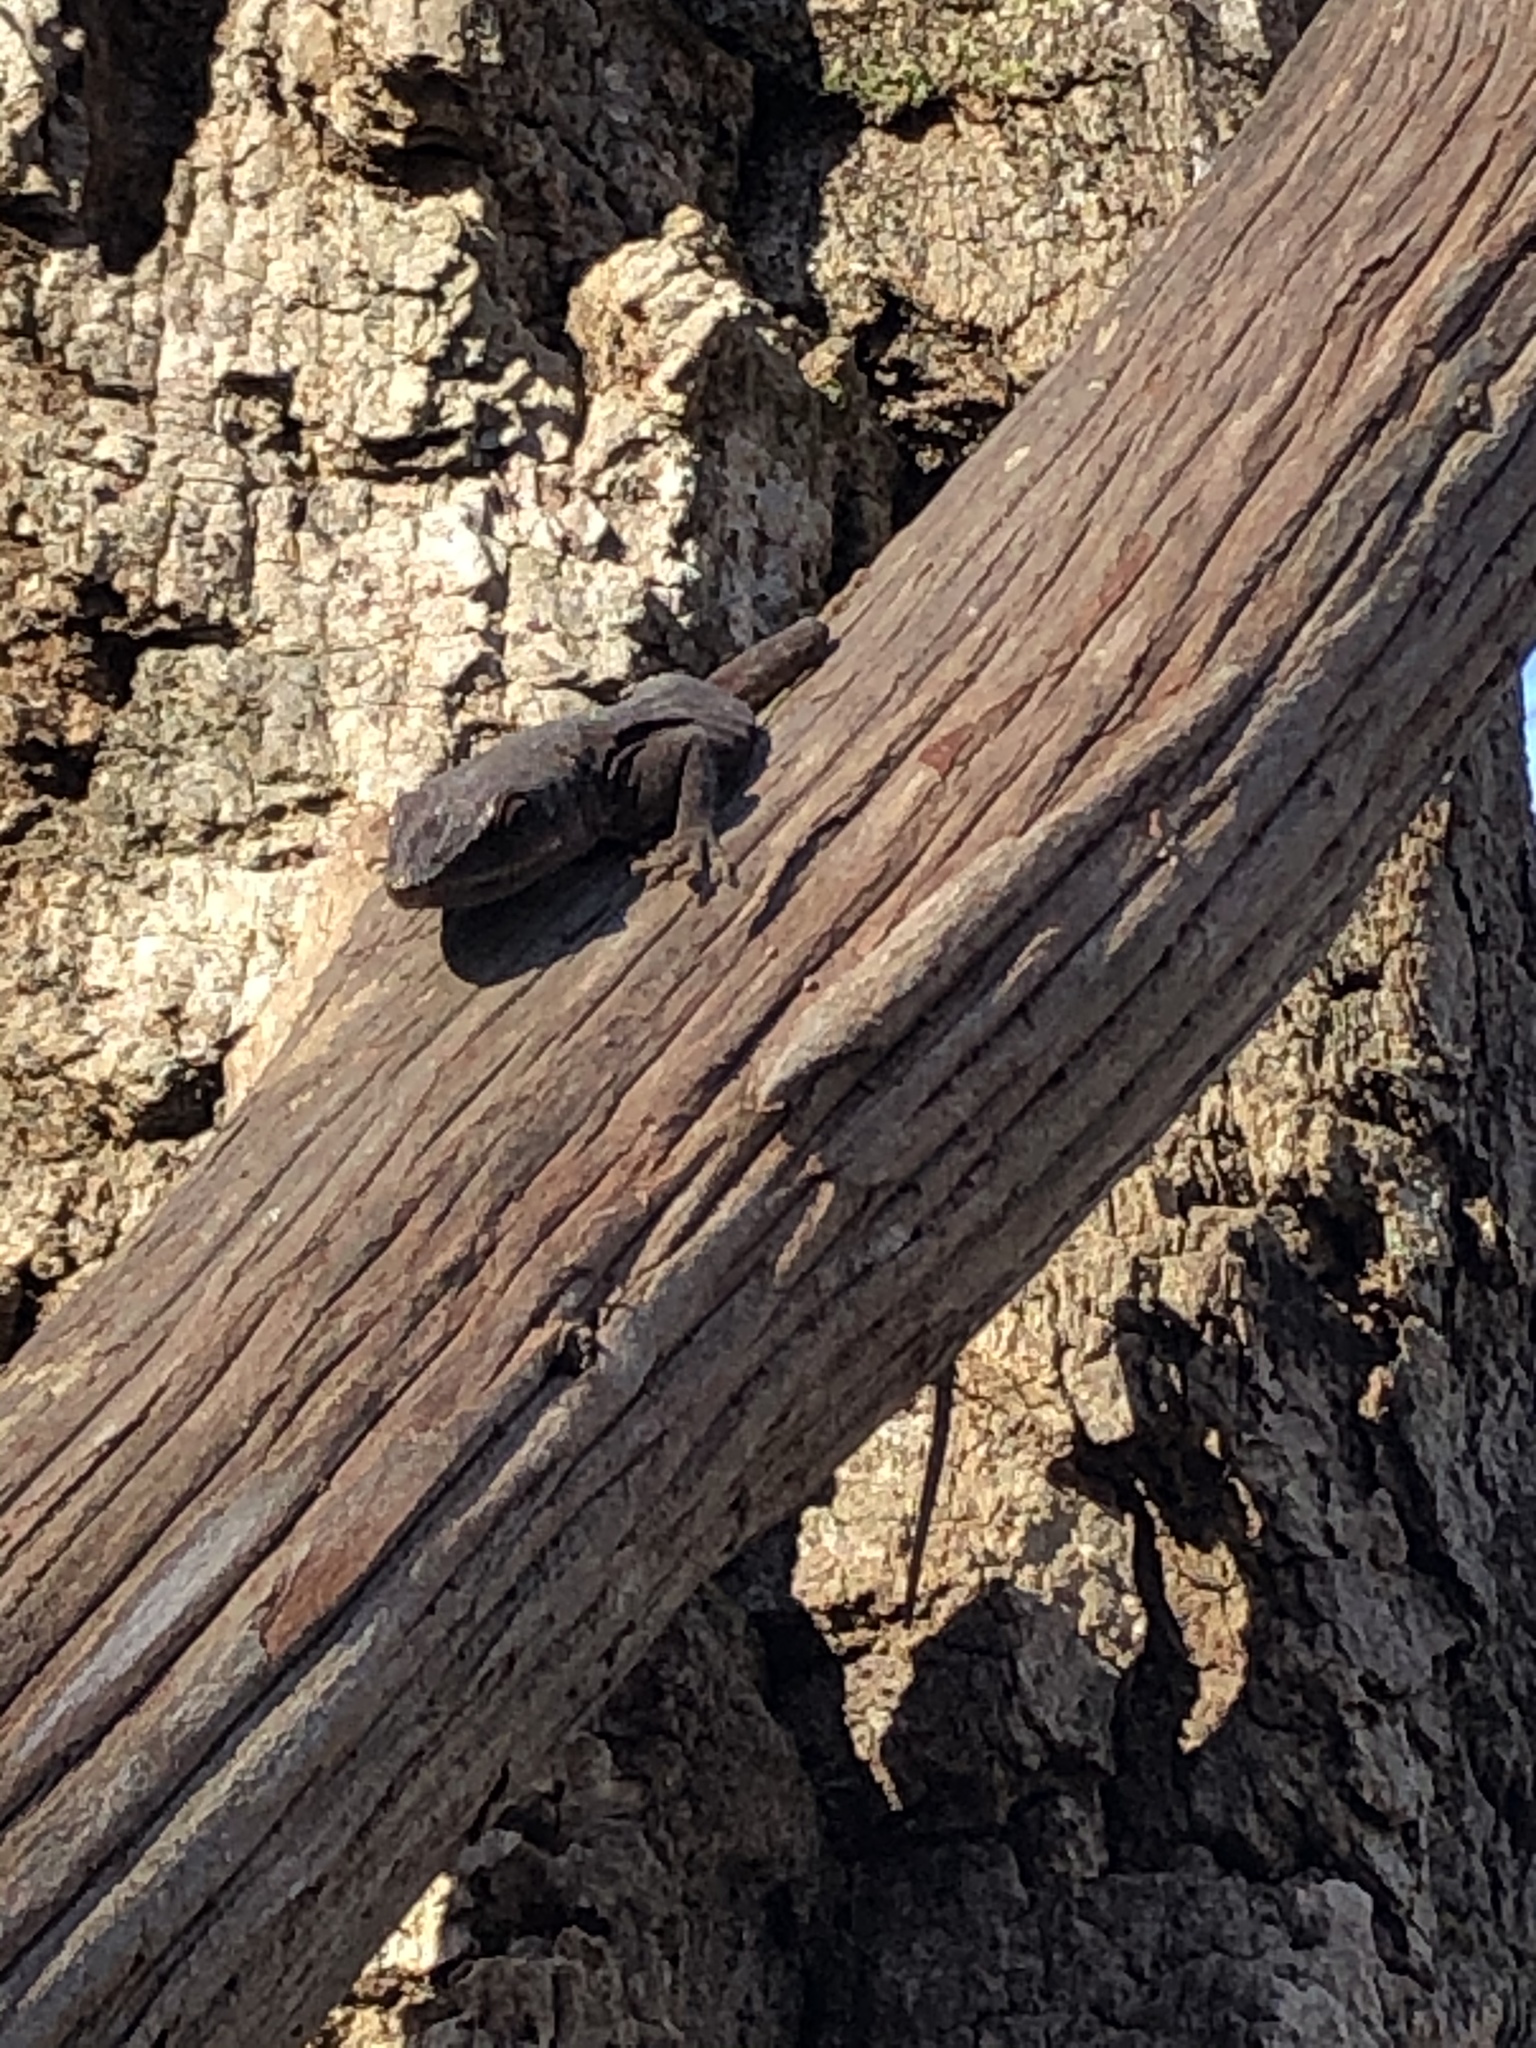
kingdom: Animalia
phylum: Chordata
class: Squamata
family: Dactyloidae
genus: Anolis
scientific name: Anolis carolinensis
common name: Green anole
